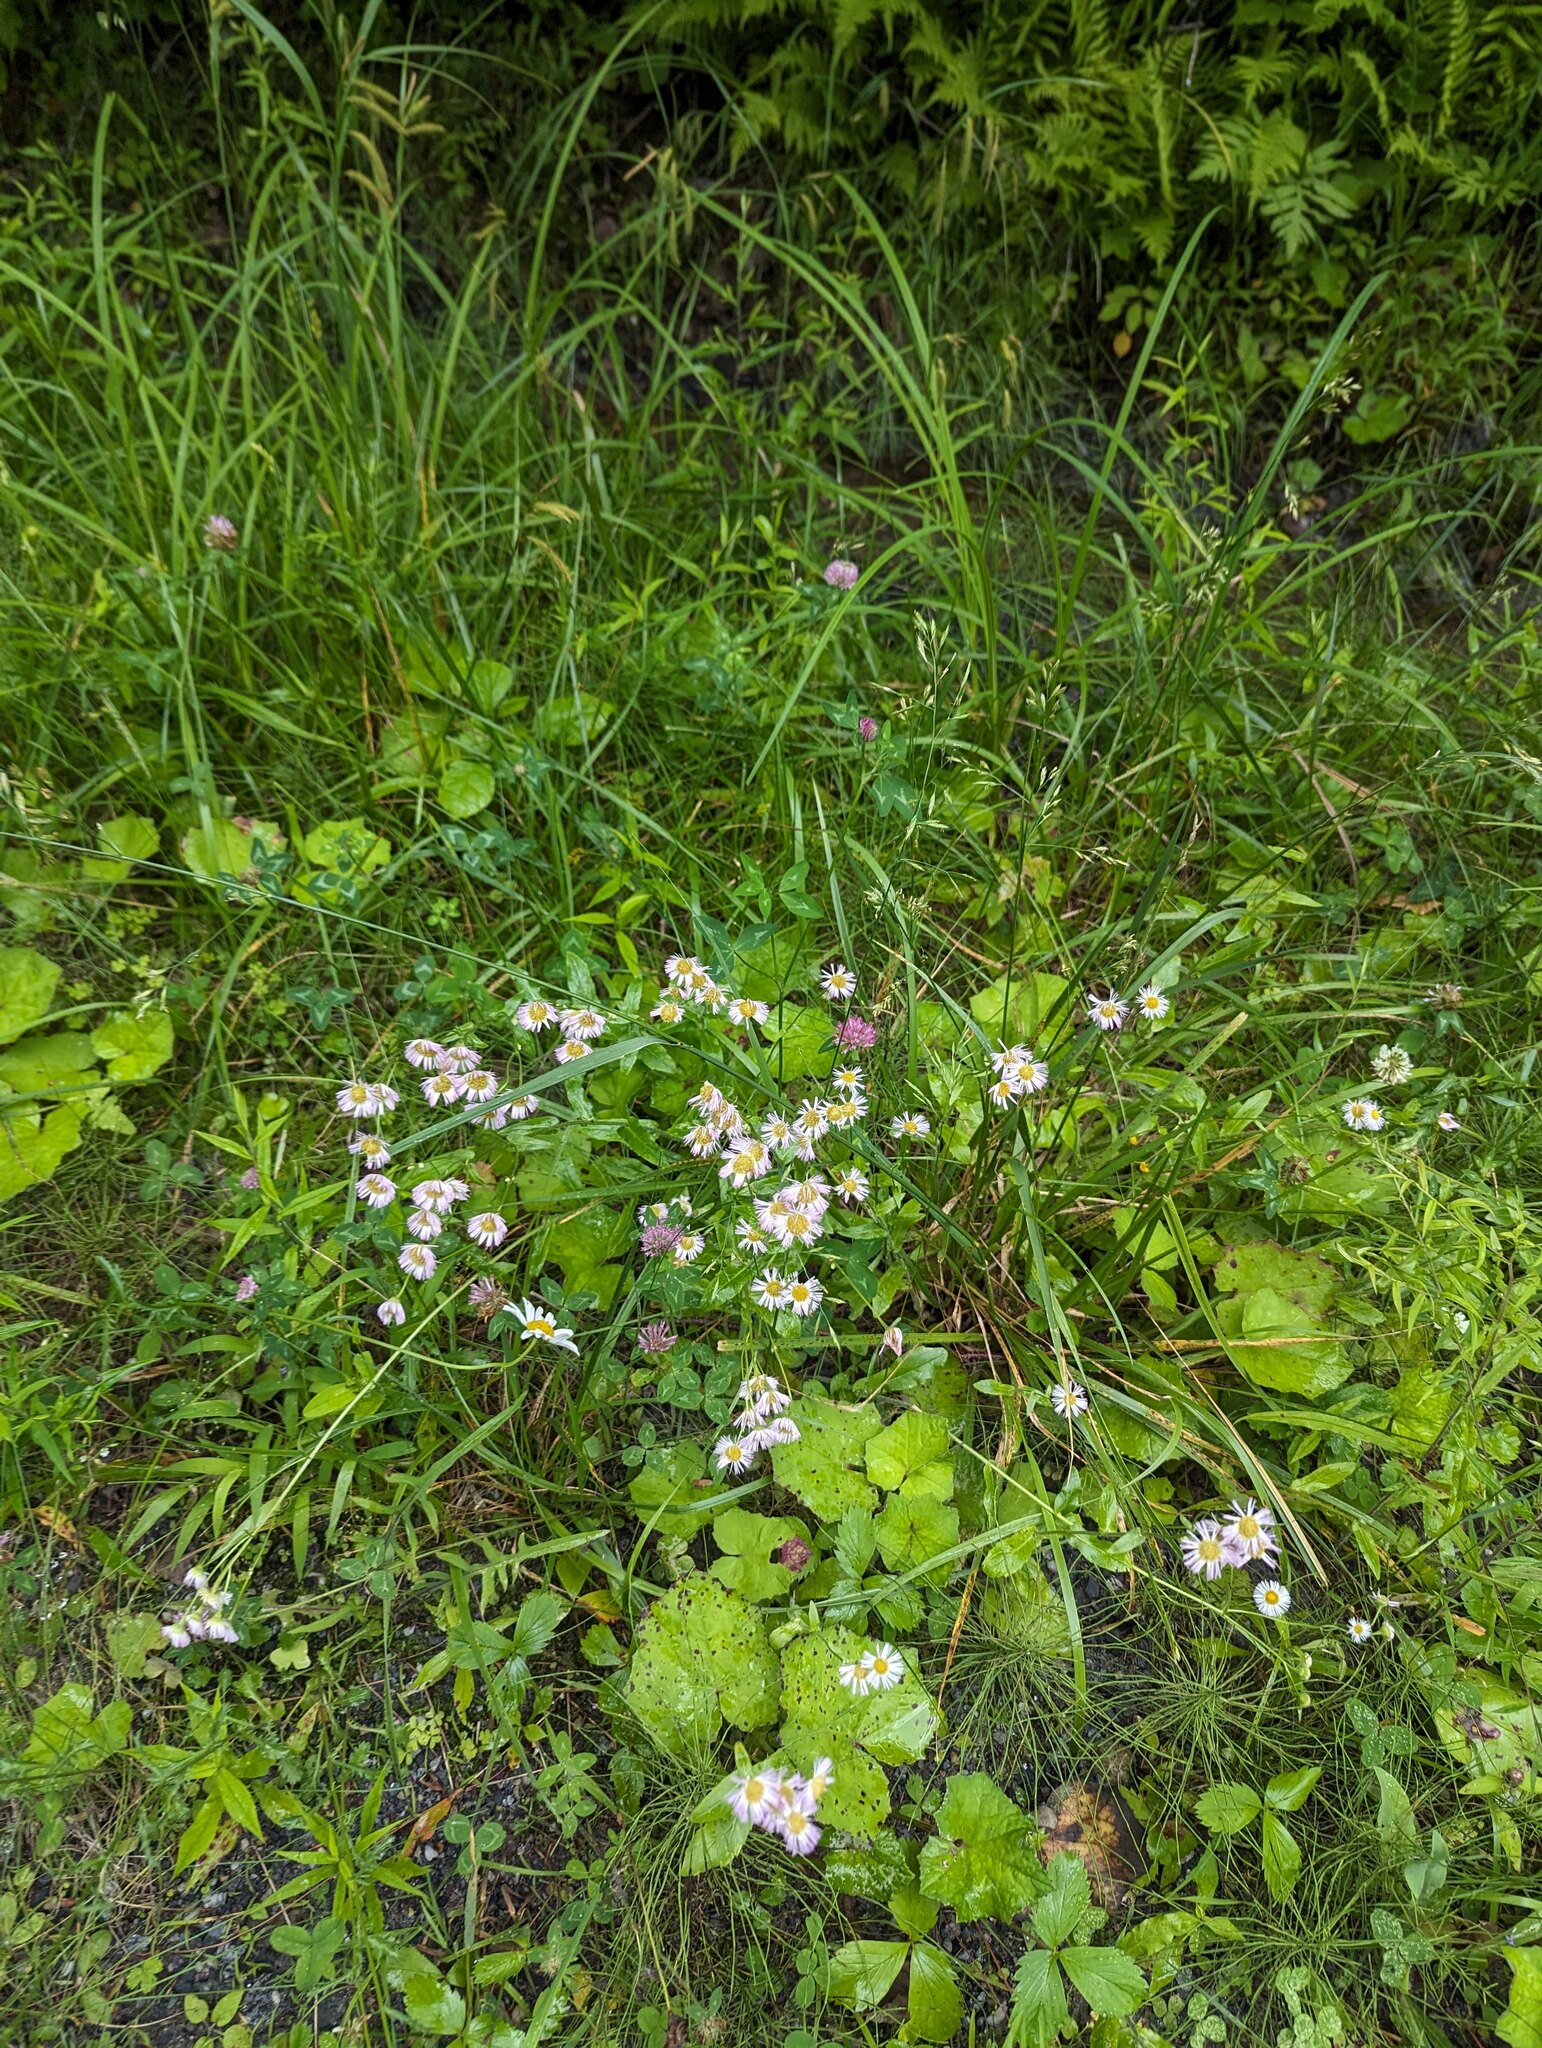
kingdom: Plantae
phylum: Tracheophyta
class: Magnoliopsida
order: Asterales
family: Asteraceae
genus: Erigeron
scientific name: Erigeron philadelphicus
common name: Robin's-plantain
